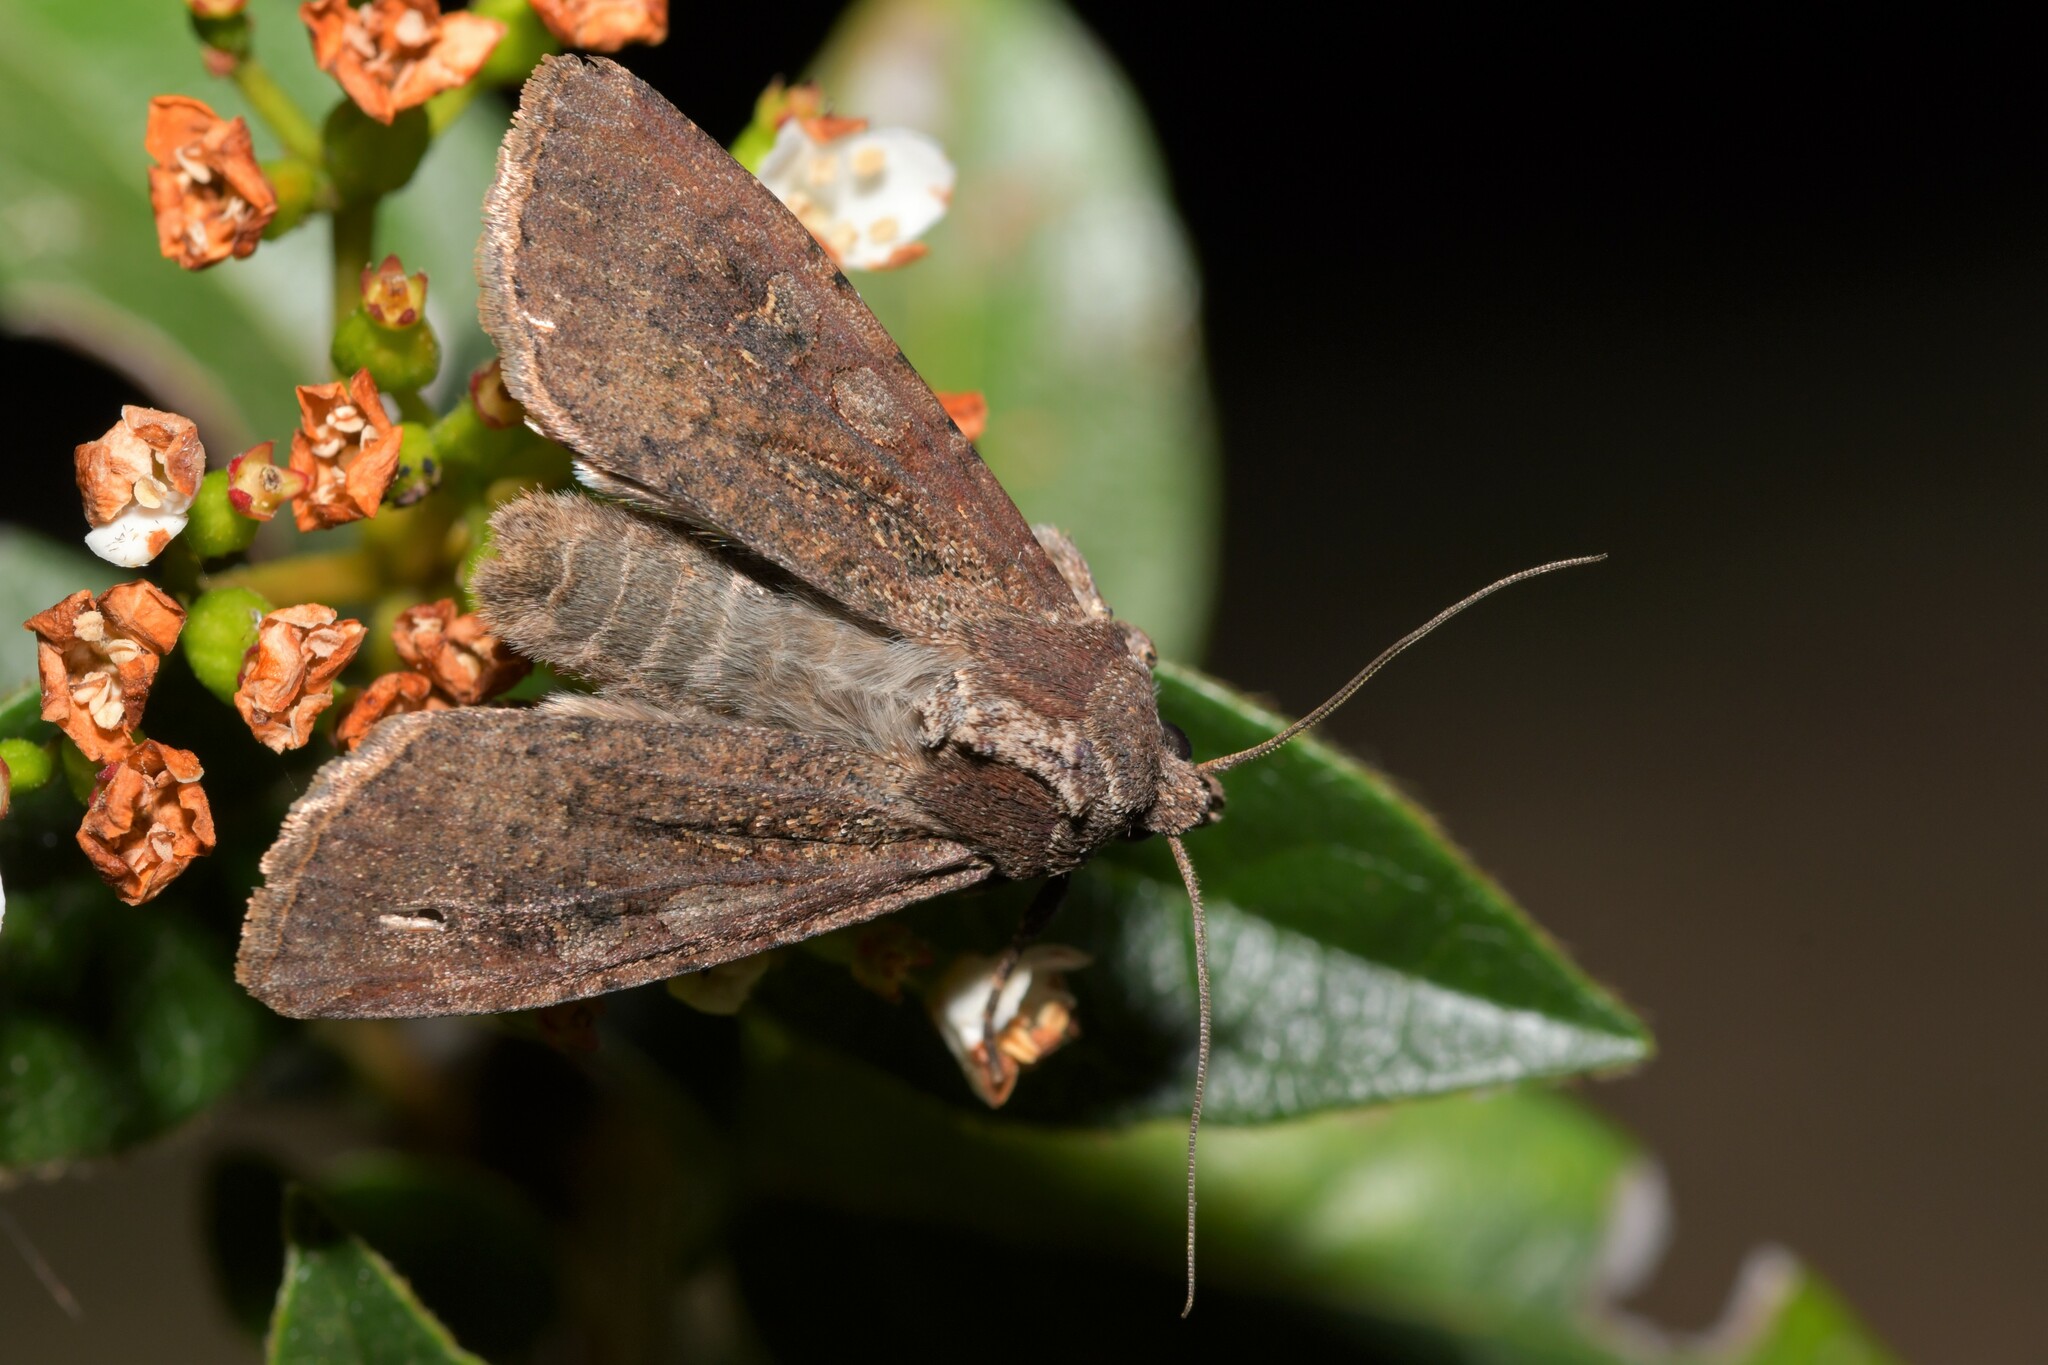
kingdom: Animalia
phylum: Arthropoda
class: Insecta
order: Lepidoptera
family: Noctuidae
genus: Peridroma
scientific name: Peridroma saucia
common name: Pearly underwing
